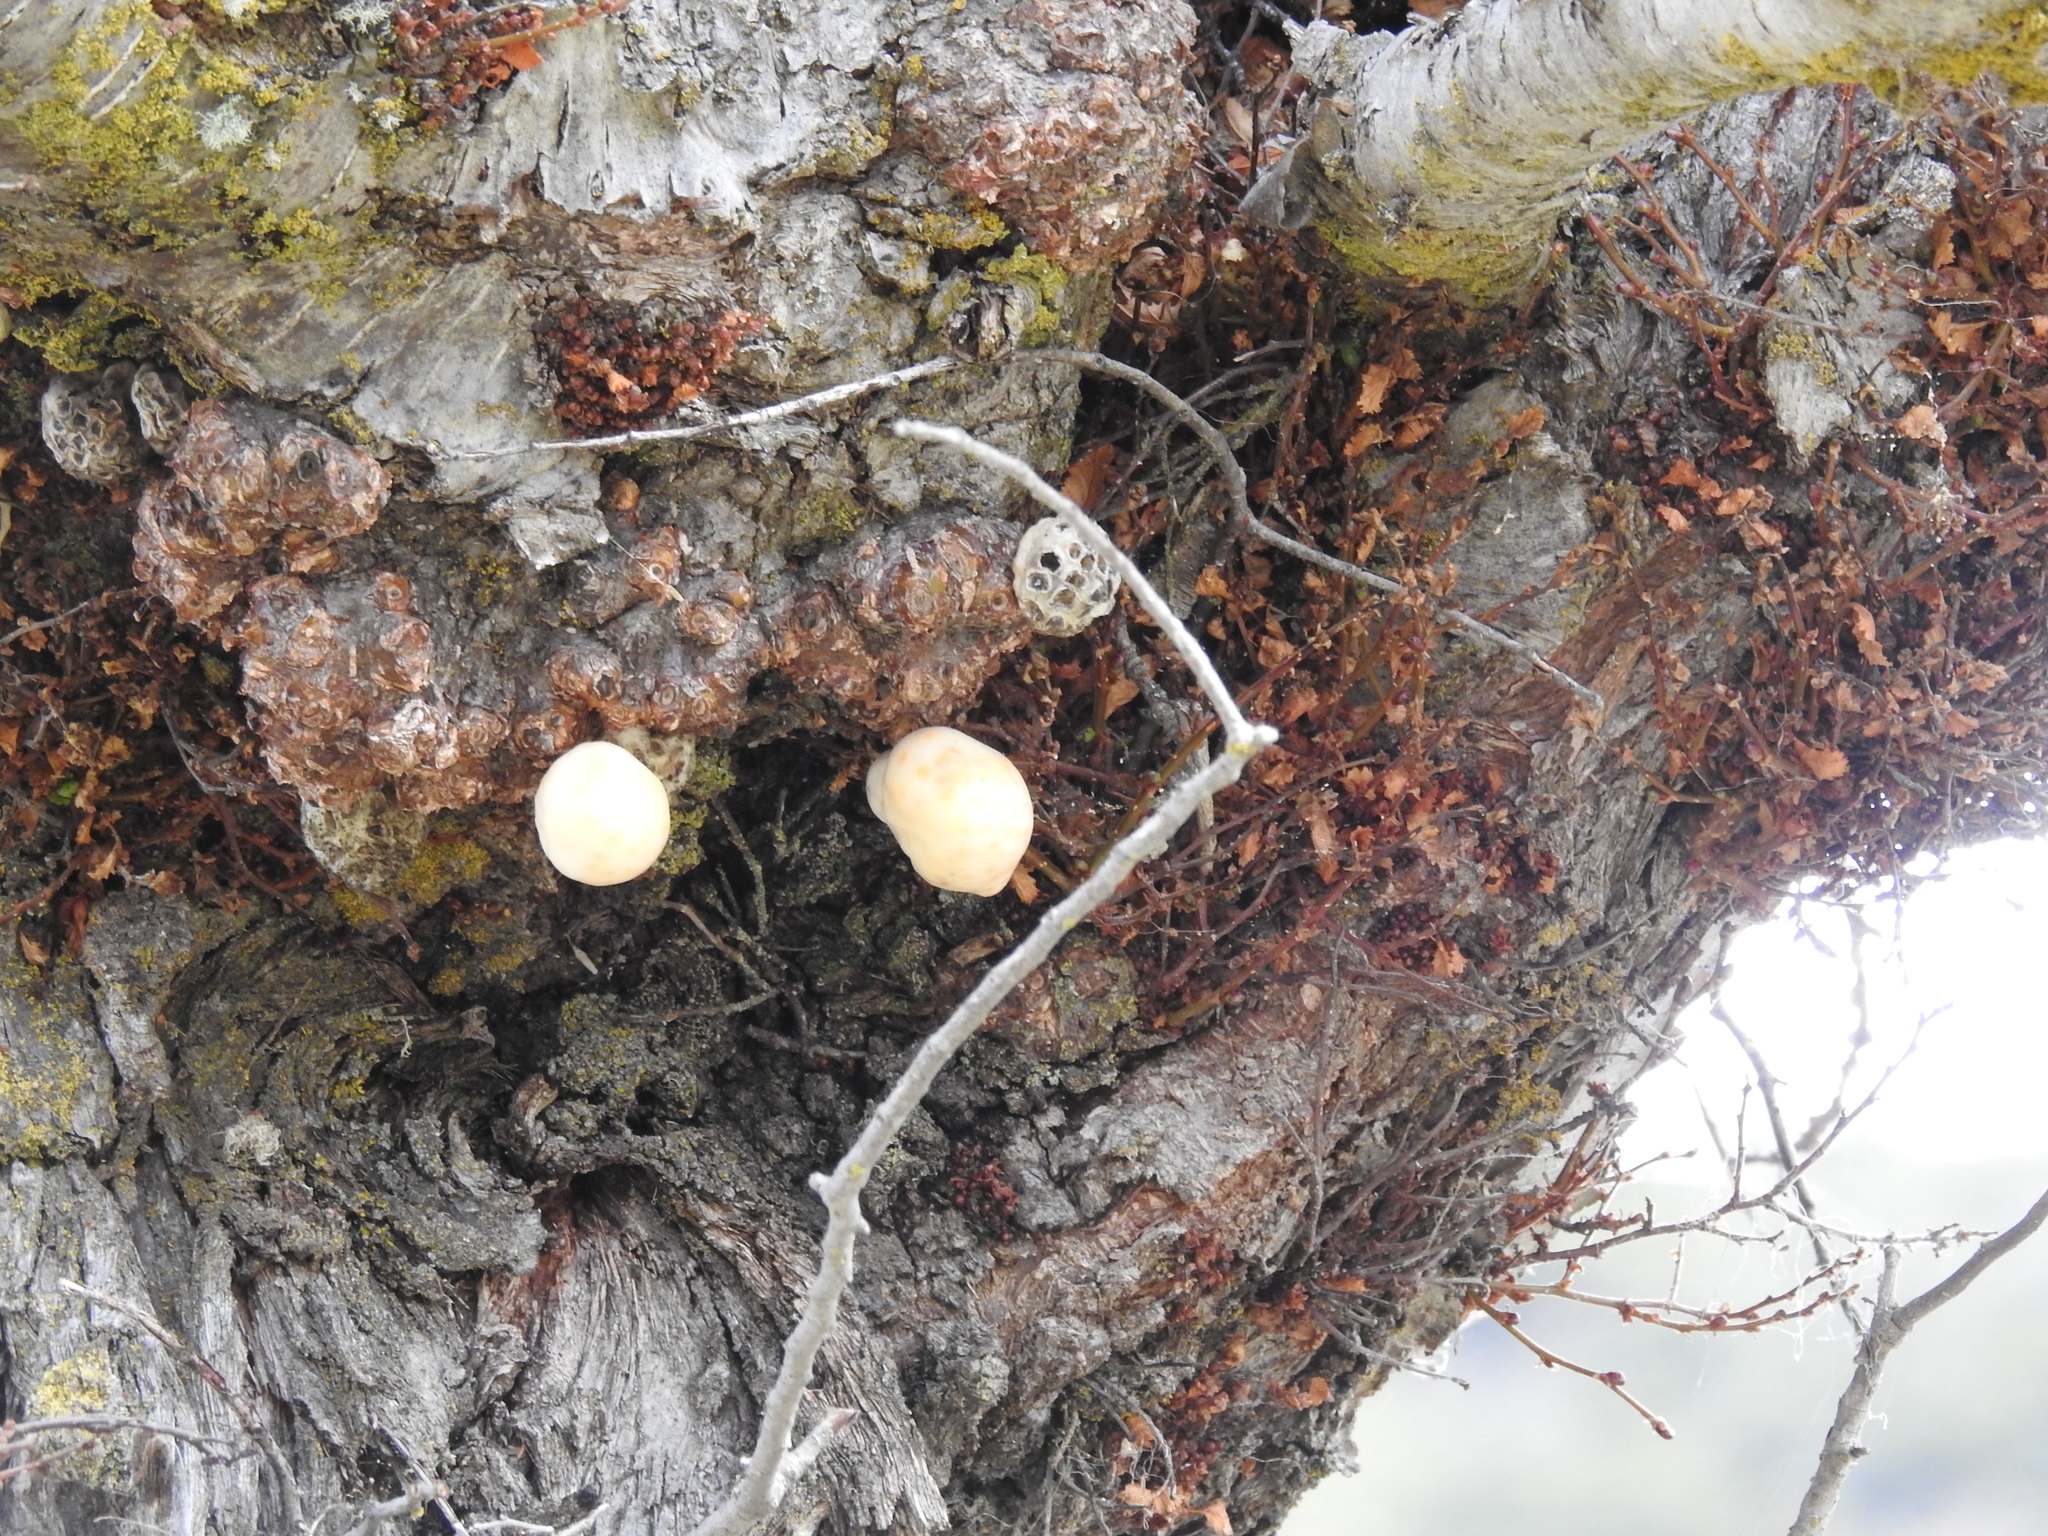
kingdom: Fungi
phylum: Ascomycota
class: Leotiomycetes
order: Cyttariales
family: Cyttariaceae
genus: Cyttaria
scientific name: Cyttaria darwinii
